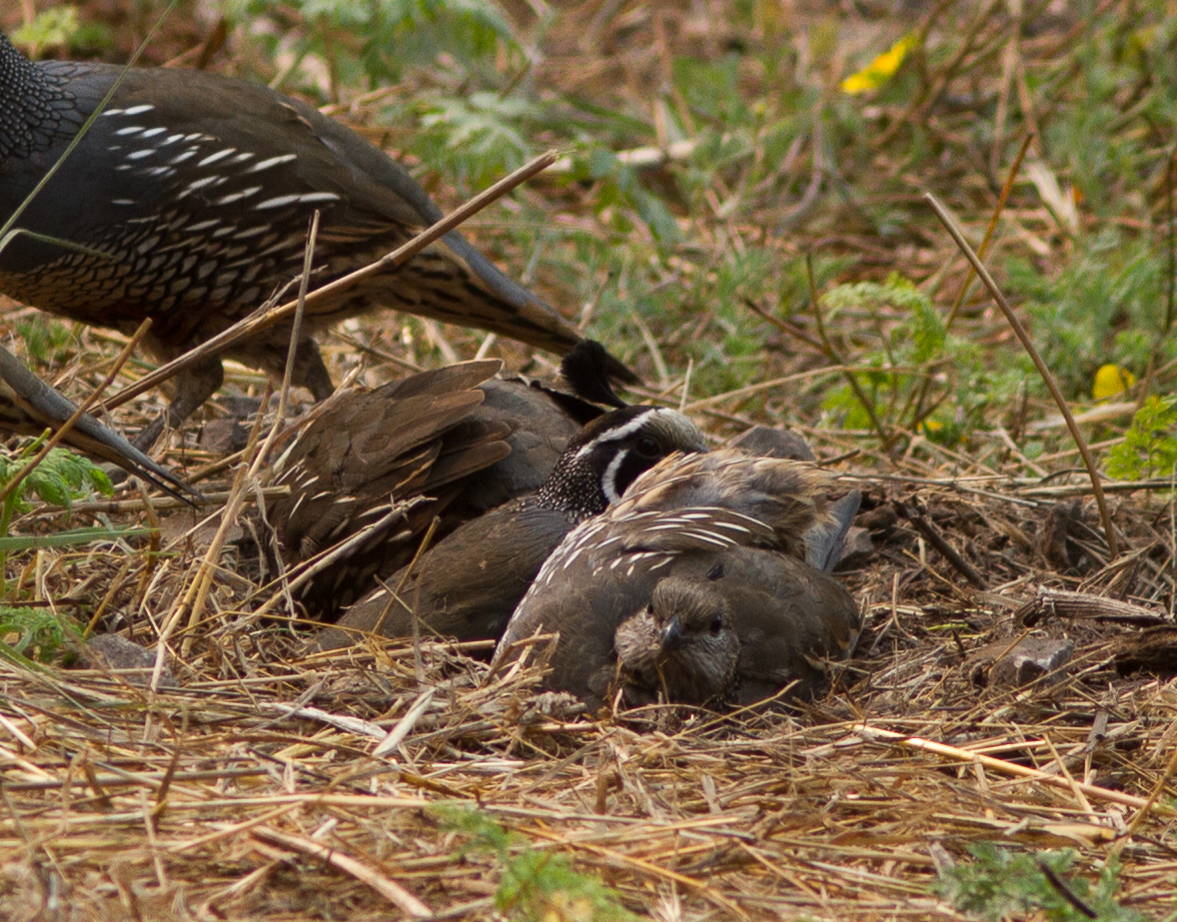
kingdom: Animalia
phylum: Chordata
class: Aves
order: Galliformes
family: Odontophoridae
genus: Callipepla
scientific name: Callipepla californica
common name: California quail
